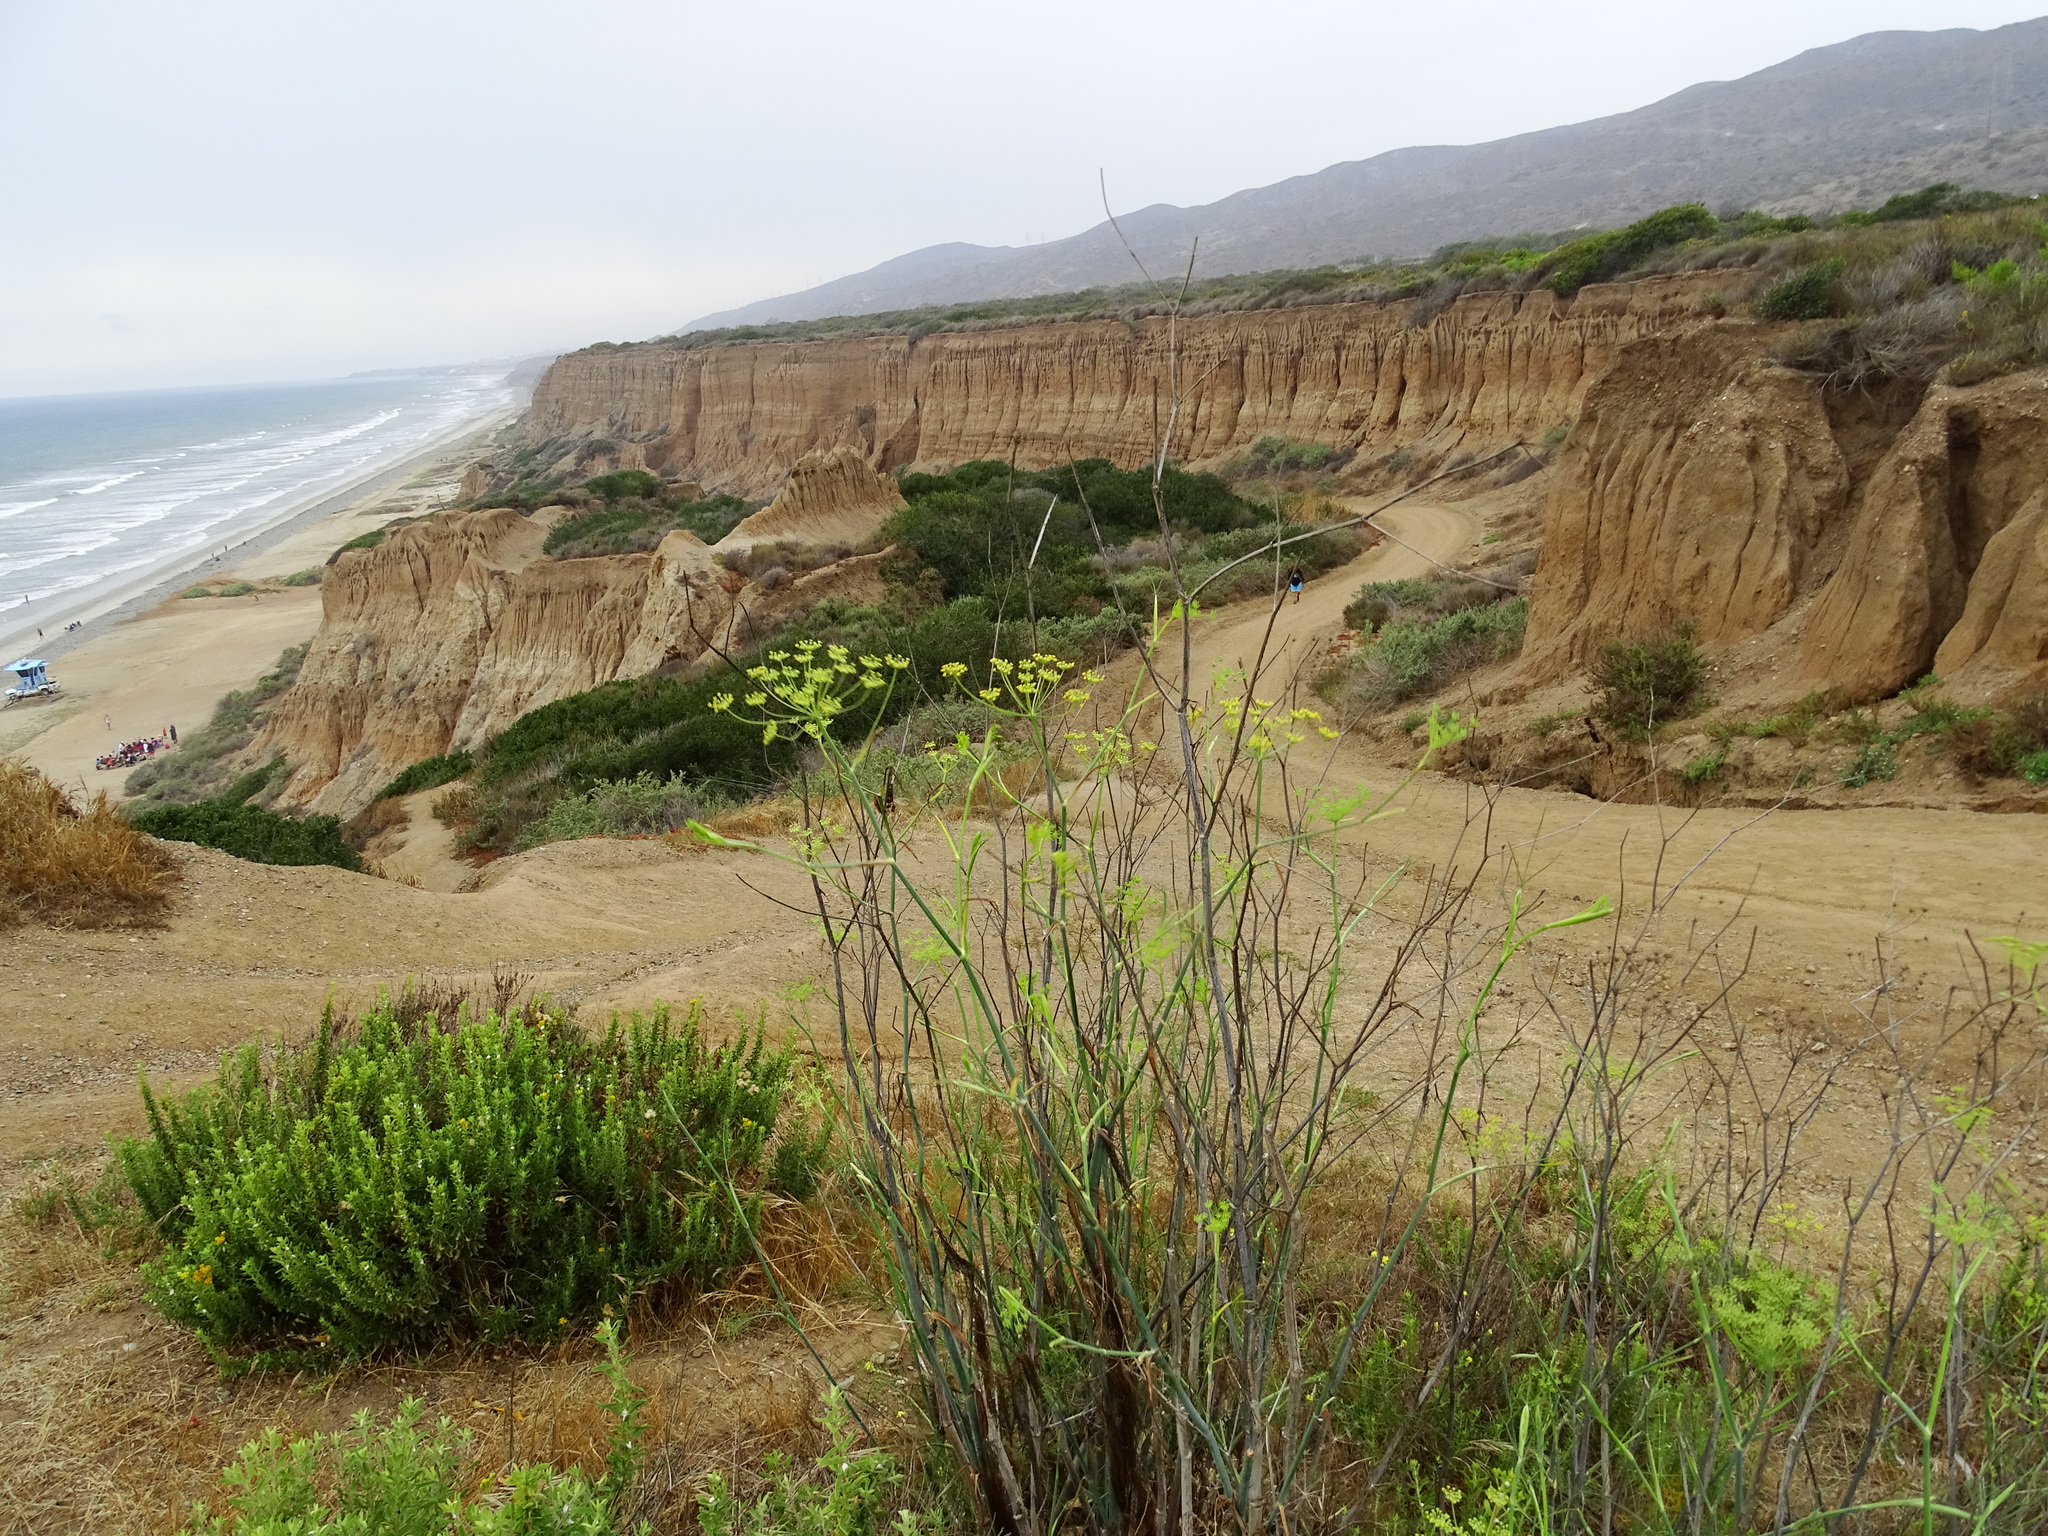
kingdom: Plantae
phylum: Tracheophyta
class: Magnoliopsida
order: Apiales
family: Apiaceae
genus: Foeniculum
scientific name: Foeniculum vulgare
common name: Fennel
